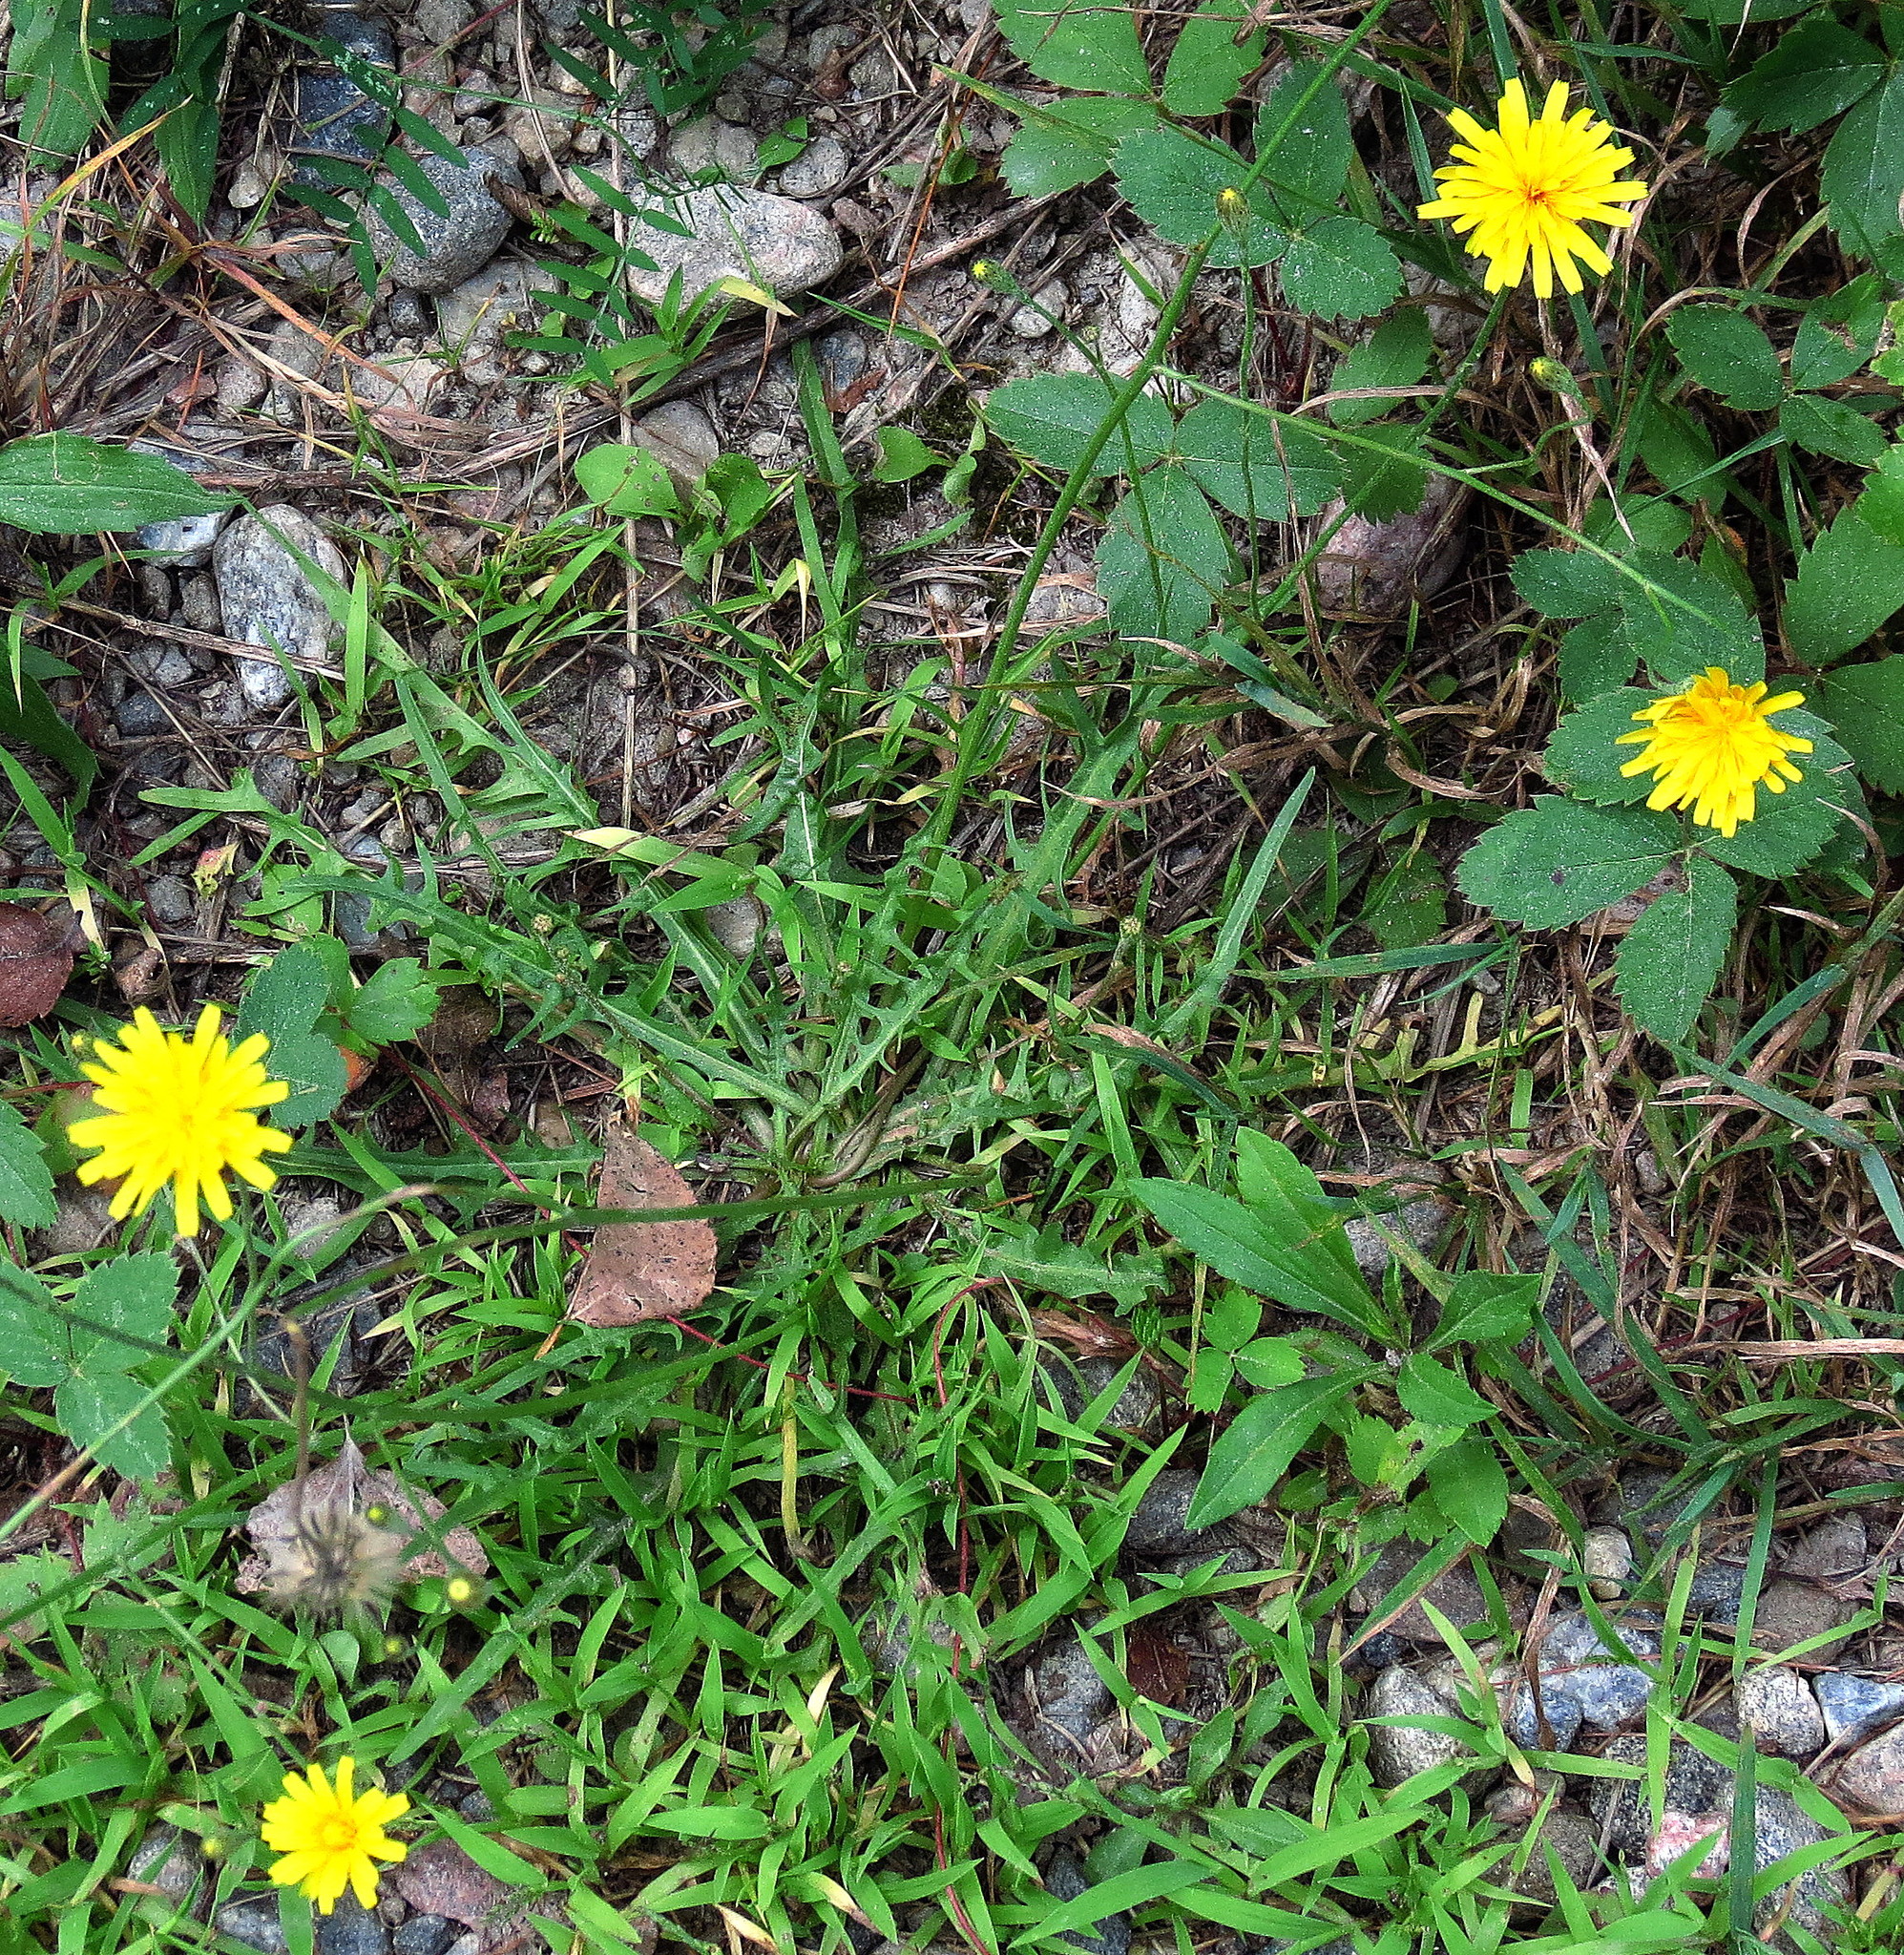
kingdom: Plantae
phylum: Tracheophyta
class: Magnoliopsida
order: Asterales
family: Asteraceae
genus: Scorzoneroides
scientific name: Scorzoneroides autumnalis
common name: Autumn hawkbit
